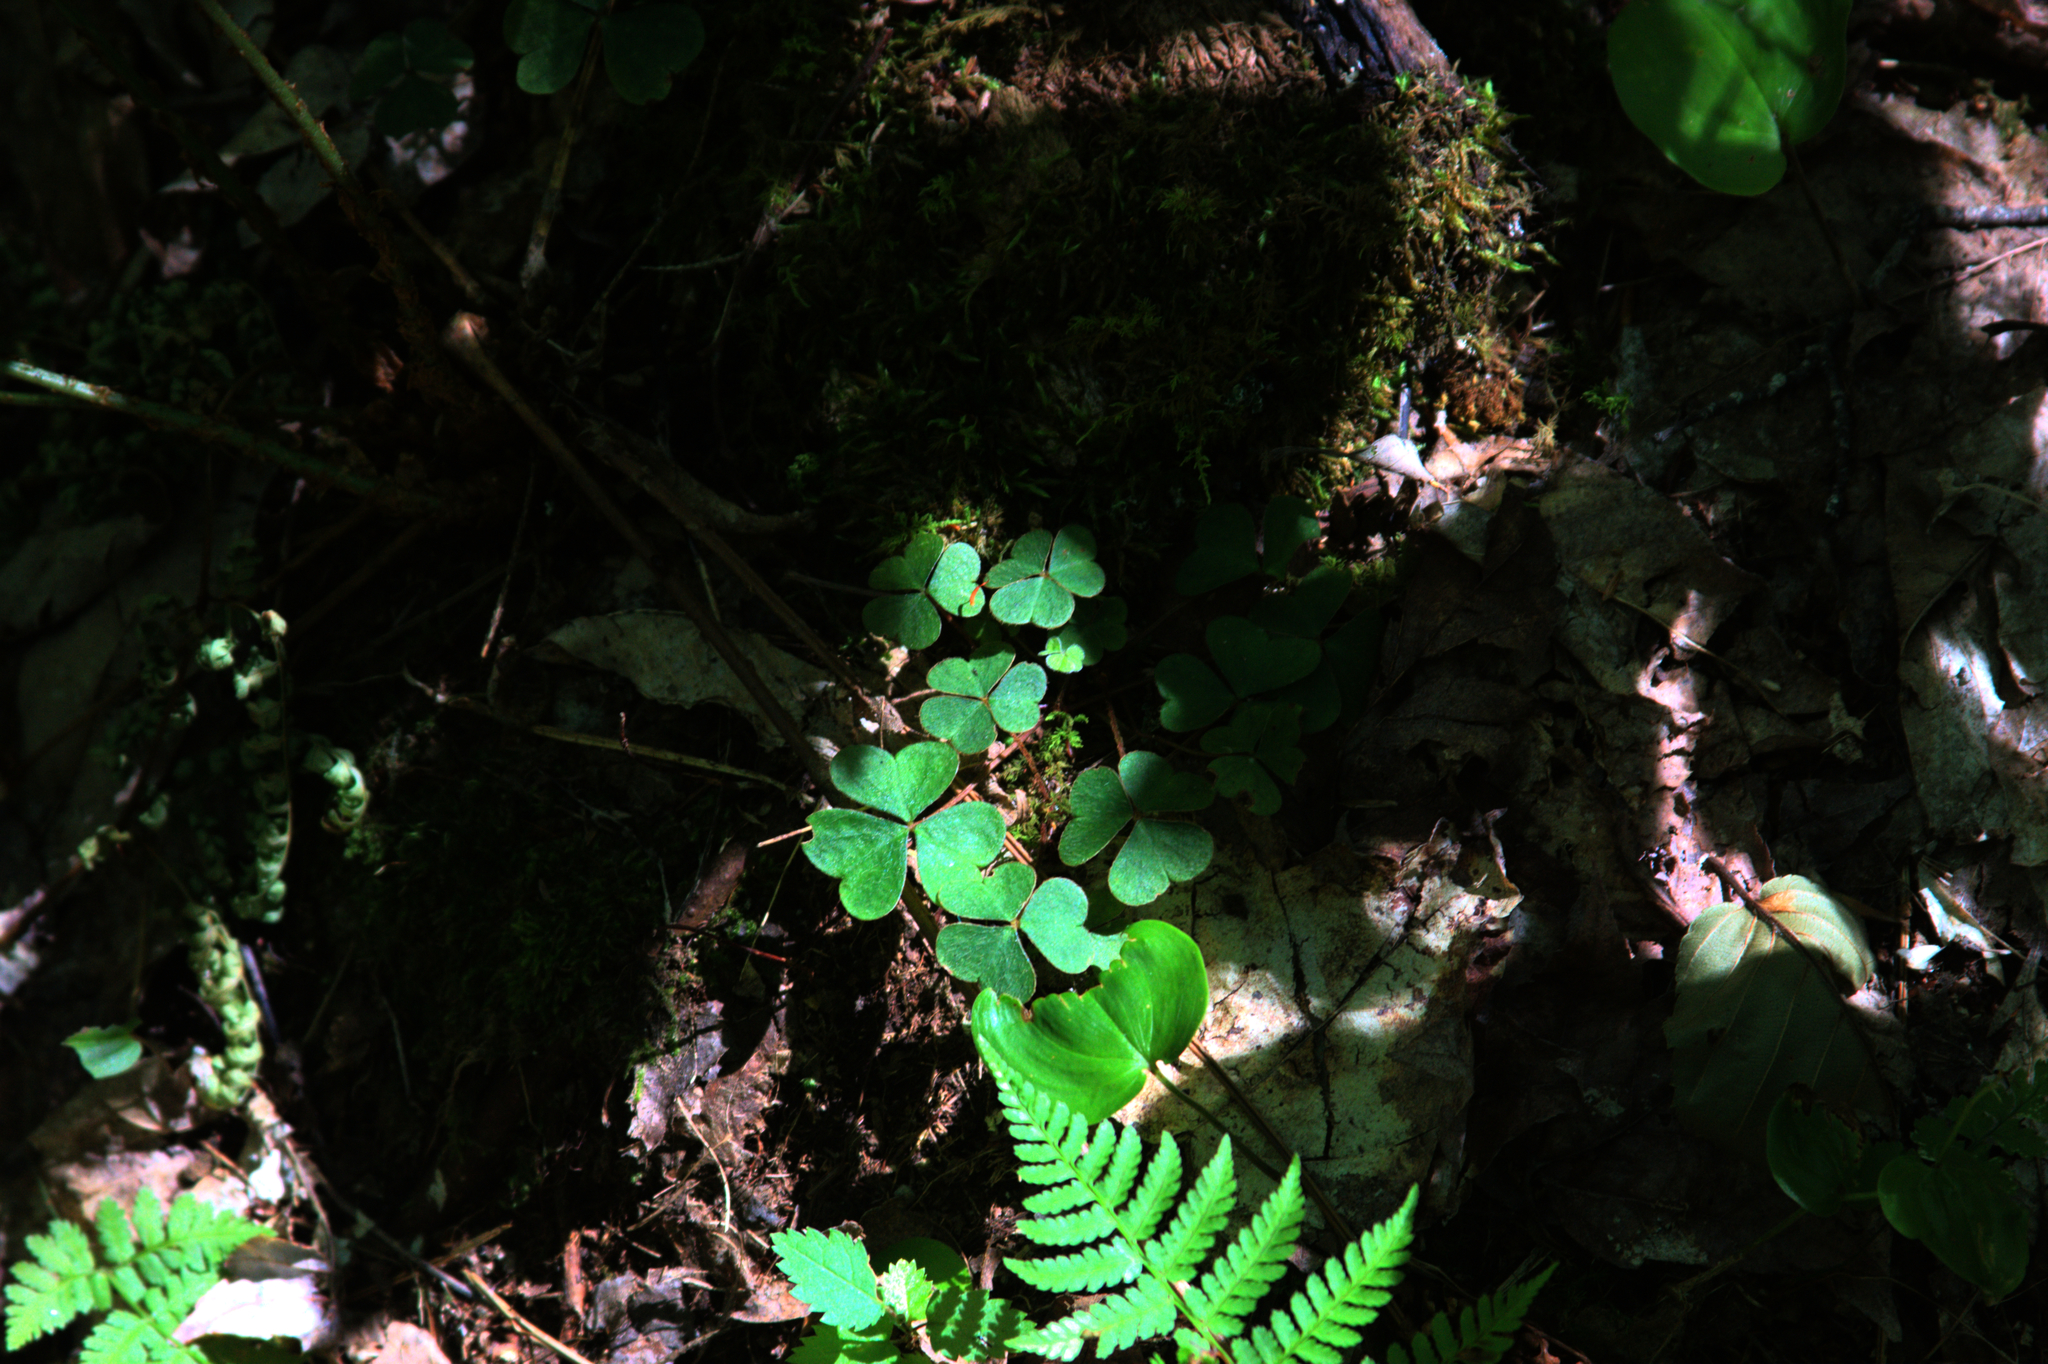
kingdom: Plantae
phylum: Tracheophyta
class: Liliopsida
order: Asparagales
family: Asparagaceae
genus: Maianthemum
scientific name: Maianthemum canadense
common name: False lily-of-the-valley
